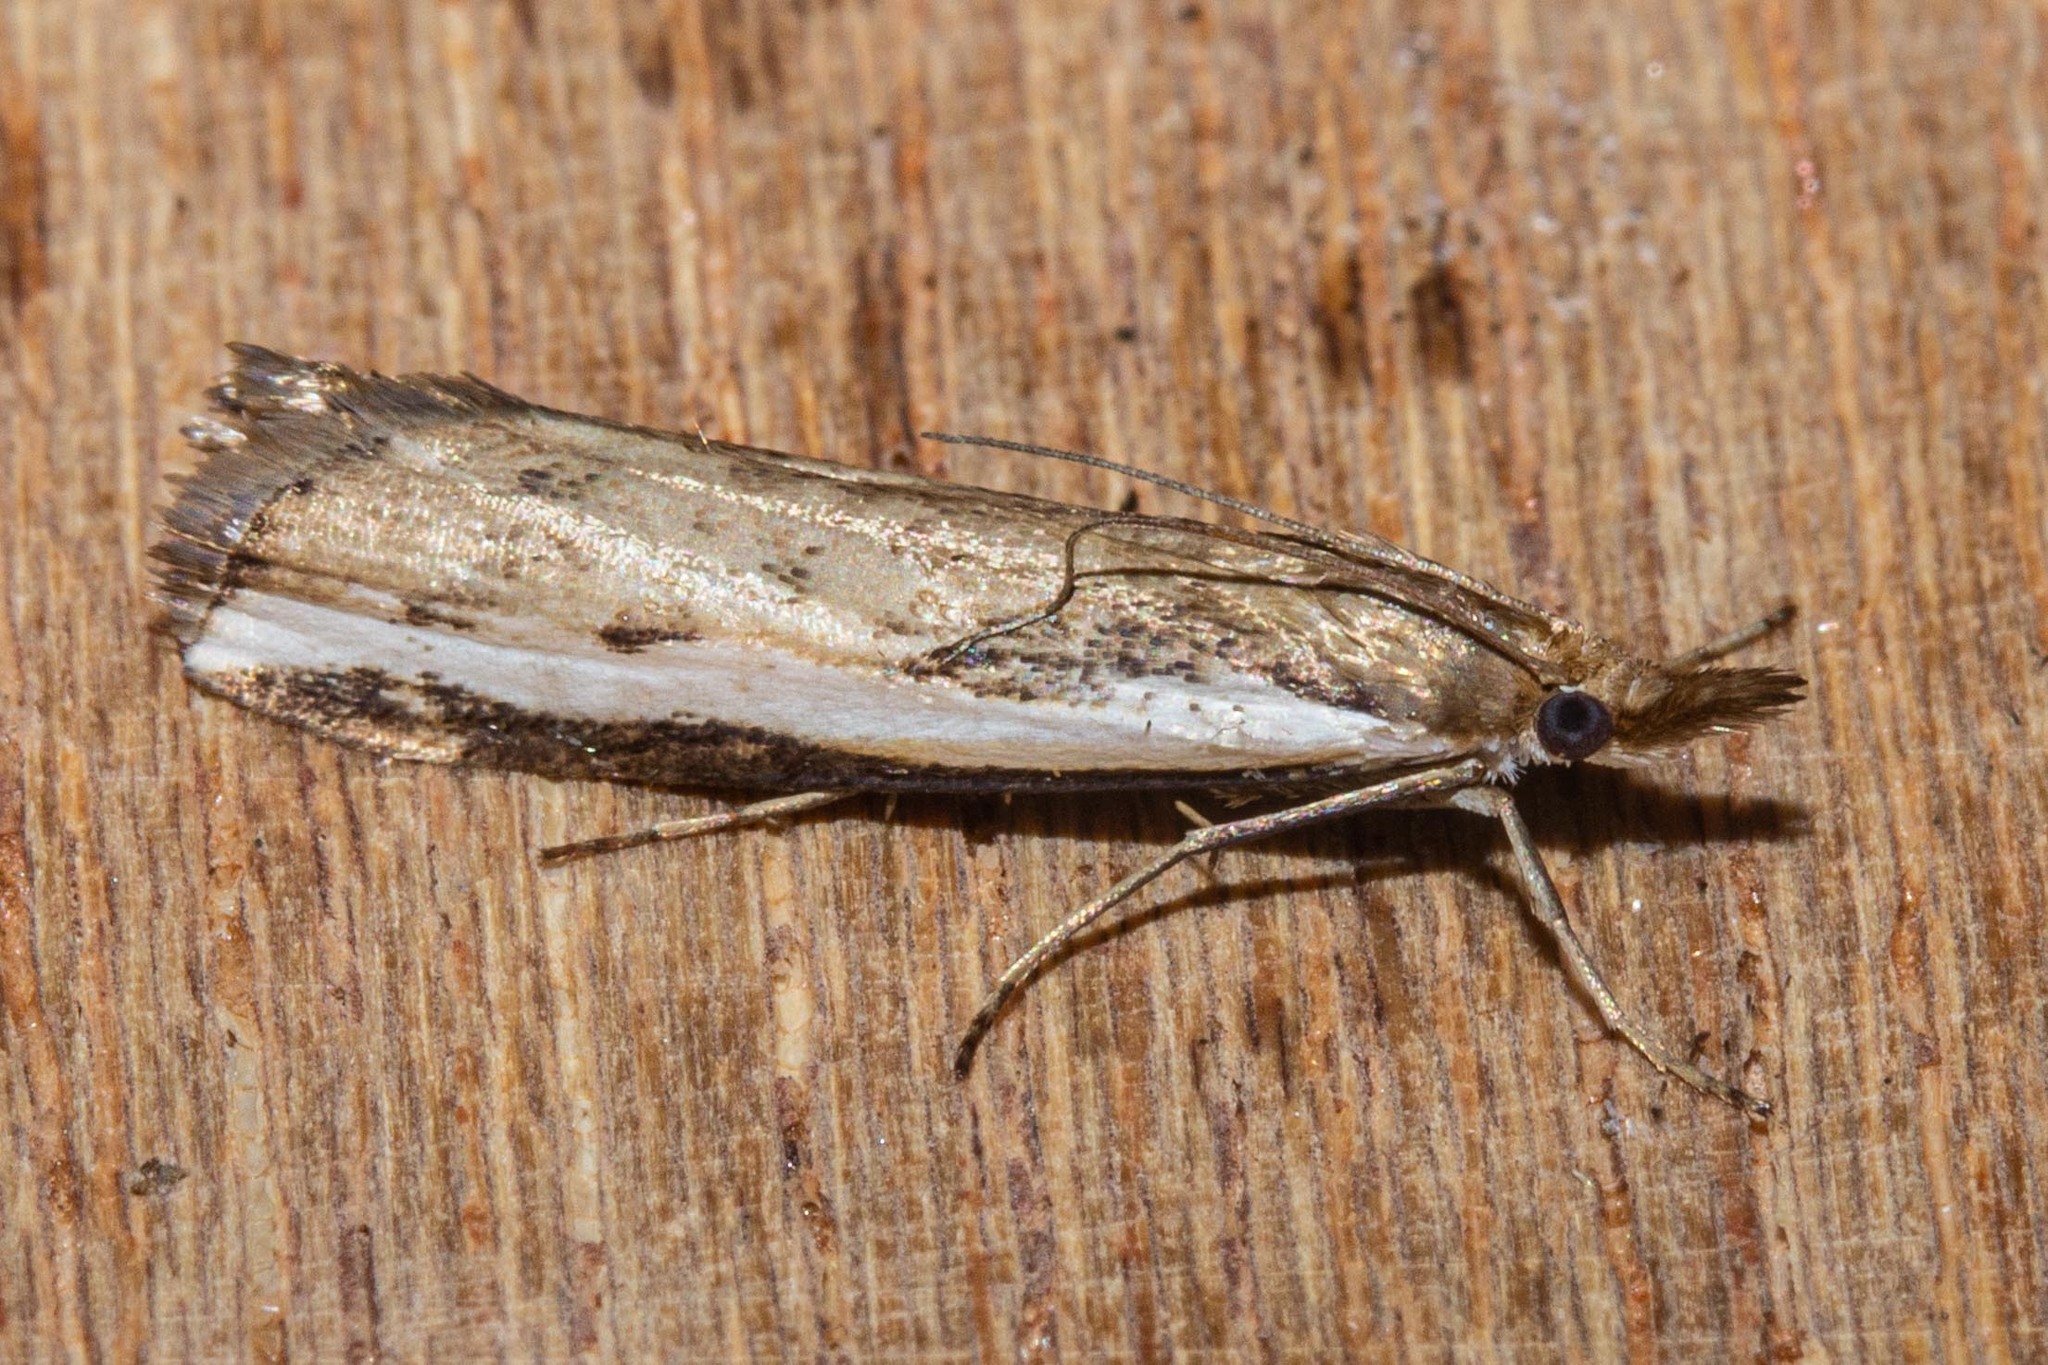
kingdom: Animalia
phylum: Arthropoda
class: Insecta
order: Lepidoptera
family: Crambidae
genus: Orocrambus
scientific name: Orocrambus flexuosellus
